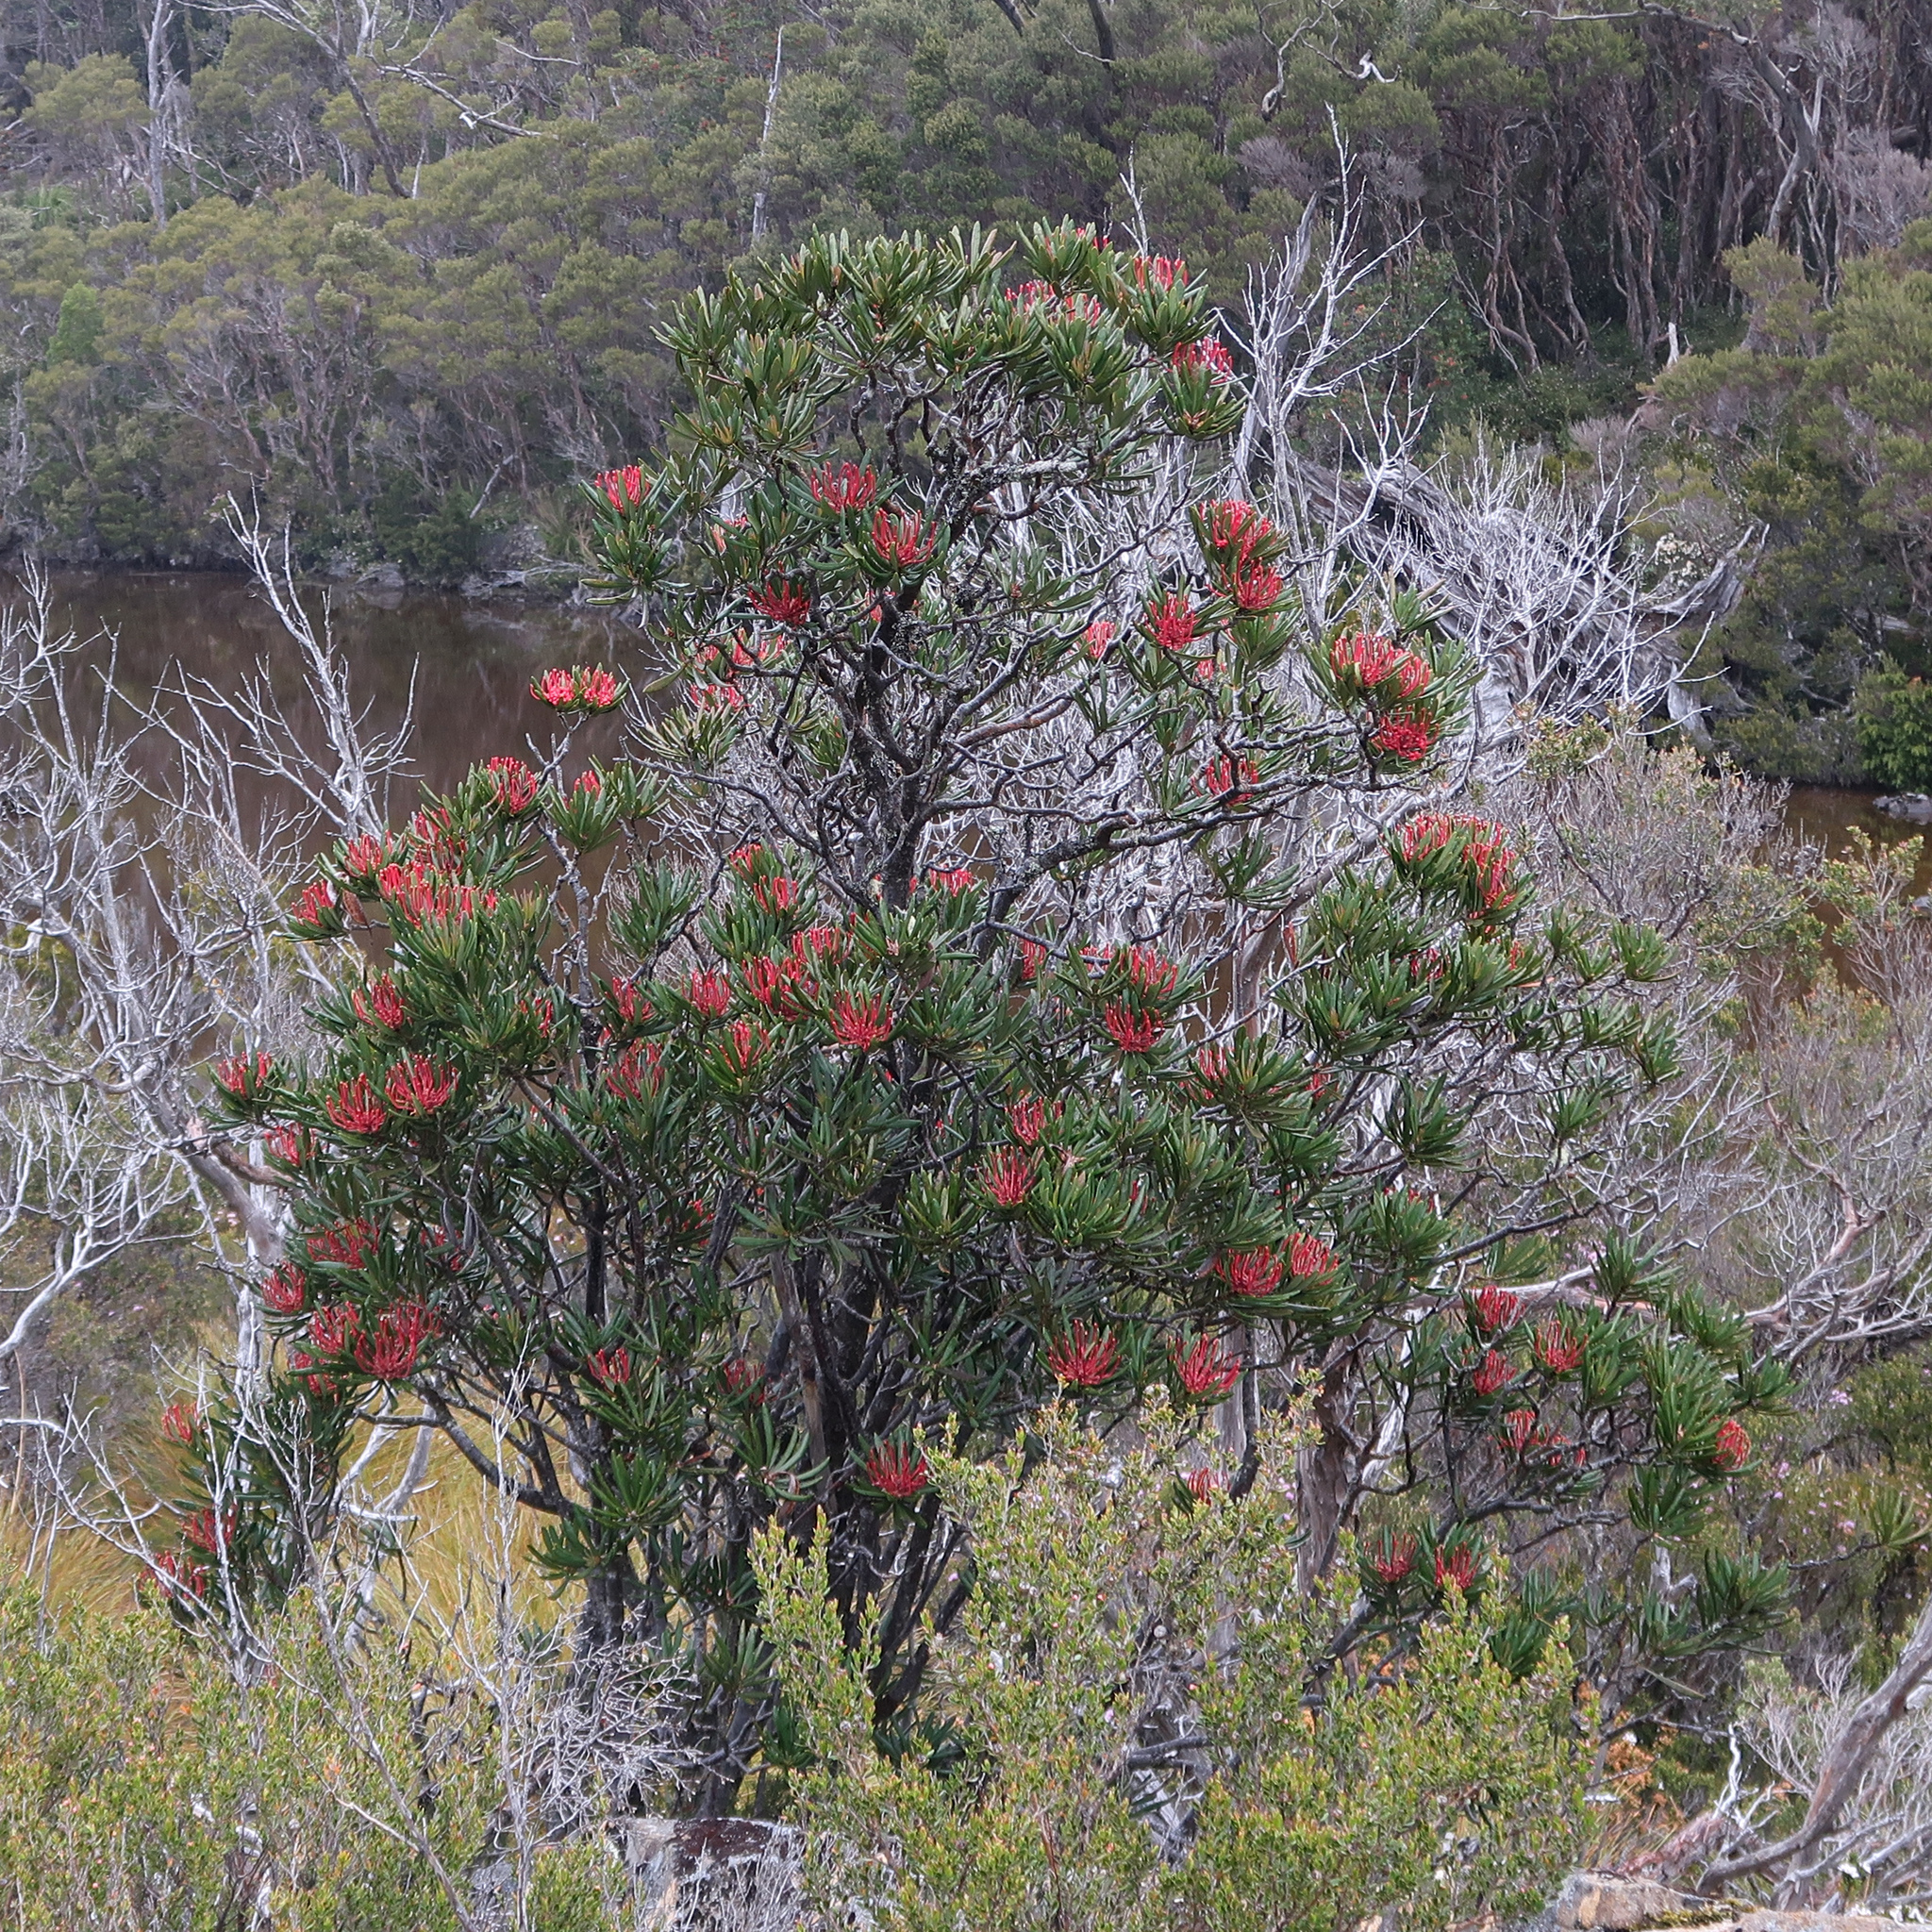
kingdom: Plantae
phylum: Tracheophyta
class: Magnoliopsida
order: Proteales
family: Proteaceae
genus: Telopea
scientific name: Telopea truncata
